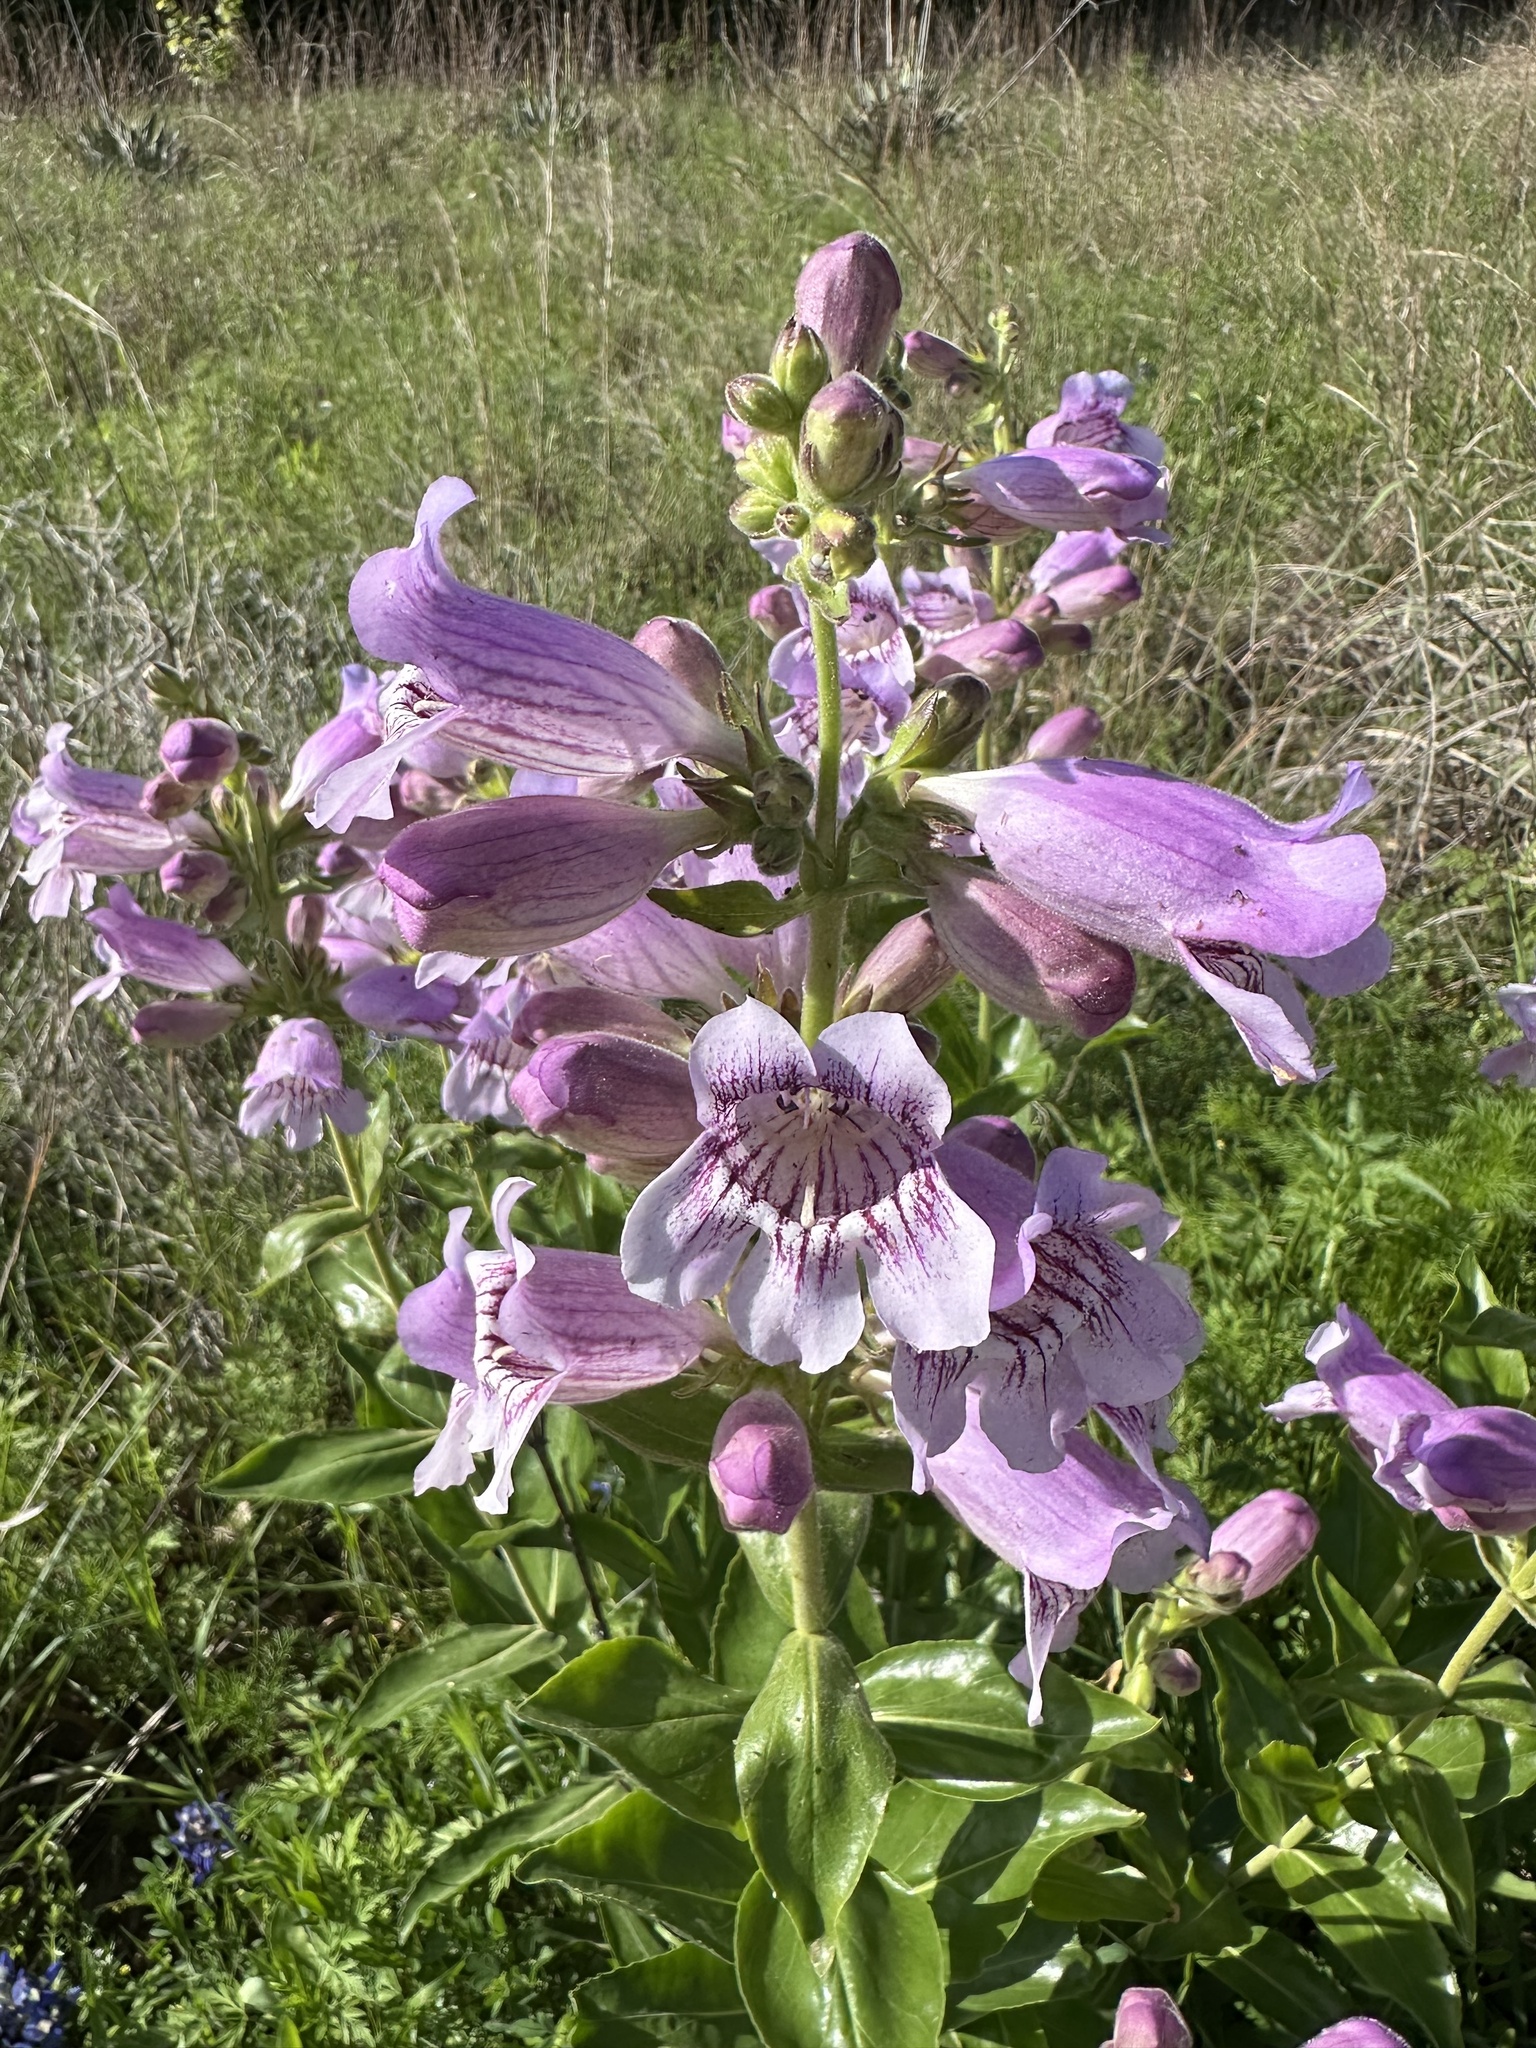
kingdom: Plantae
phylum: Tracheophyta
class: Magnoliopsida
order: Lamiales
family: Plantaginaceae
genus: Penstemon
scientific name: Penstemon cobaea
